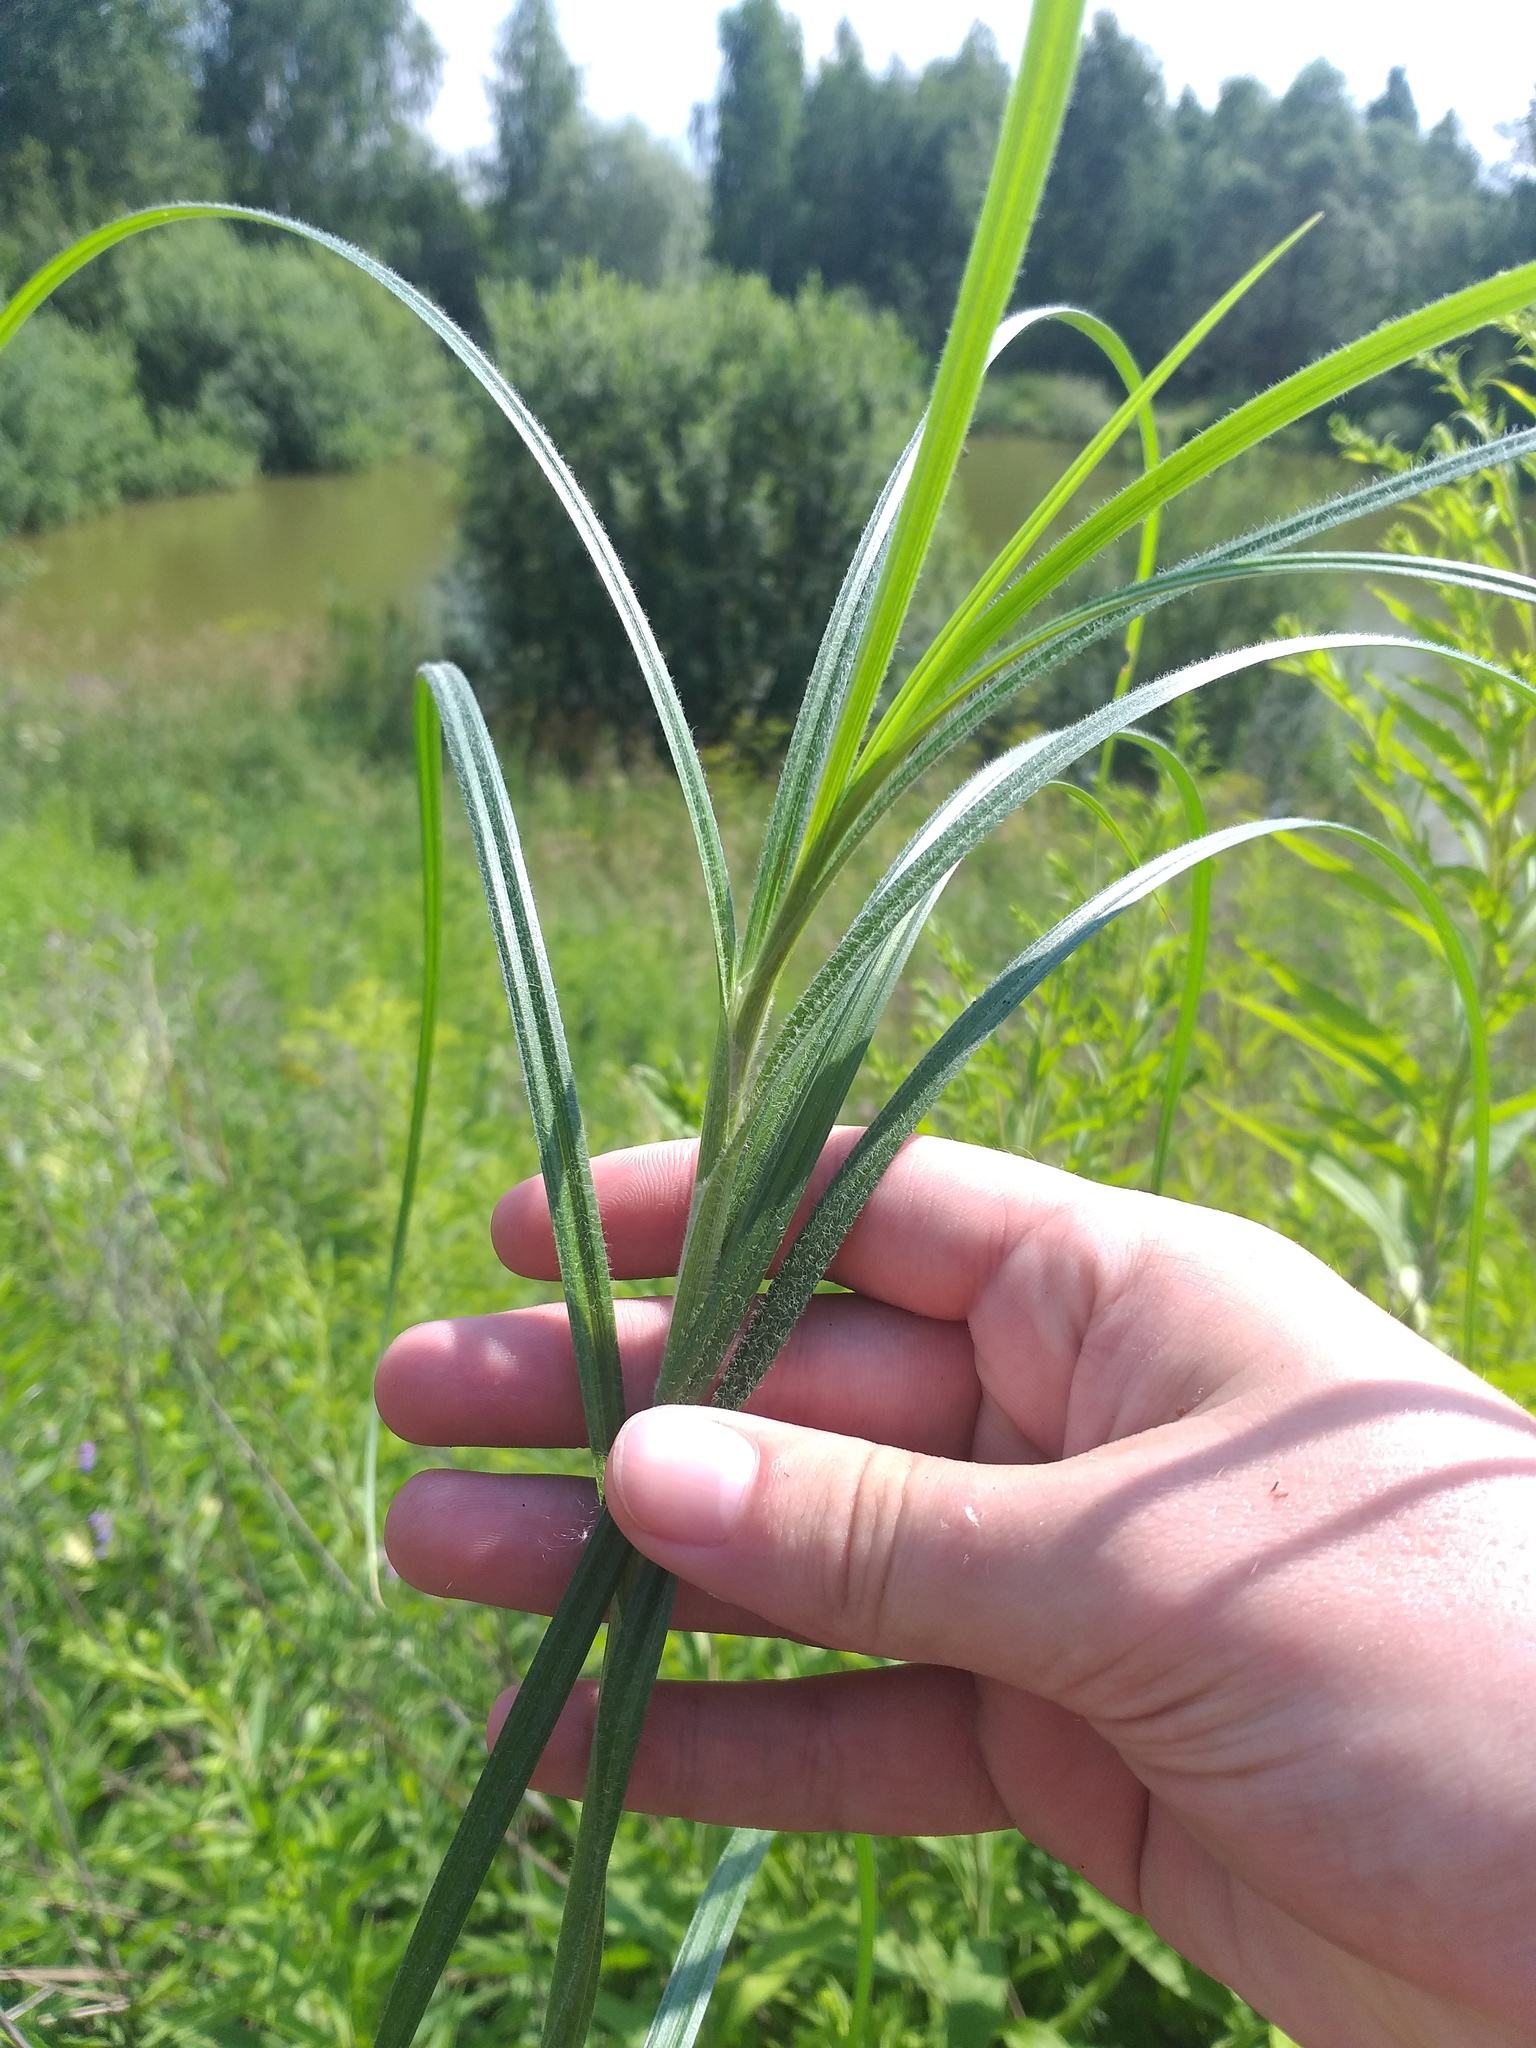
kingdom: Plantae
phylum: Tracheophyta
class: Liliopsida
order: Poales
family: Cyperaceae
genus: Carex
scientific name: Carex hirta
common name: Hairy sedge
